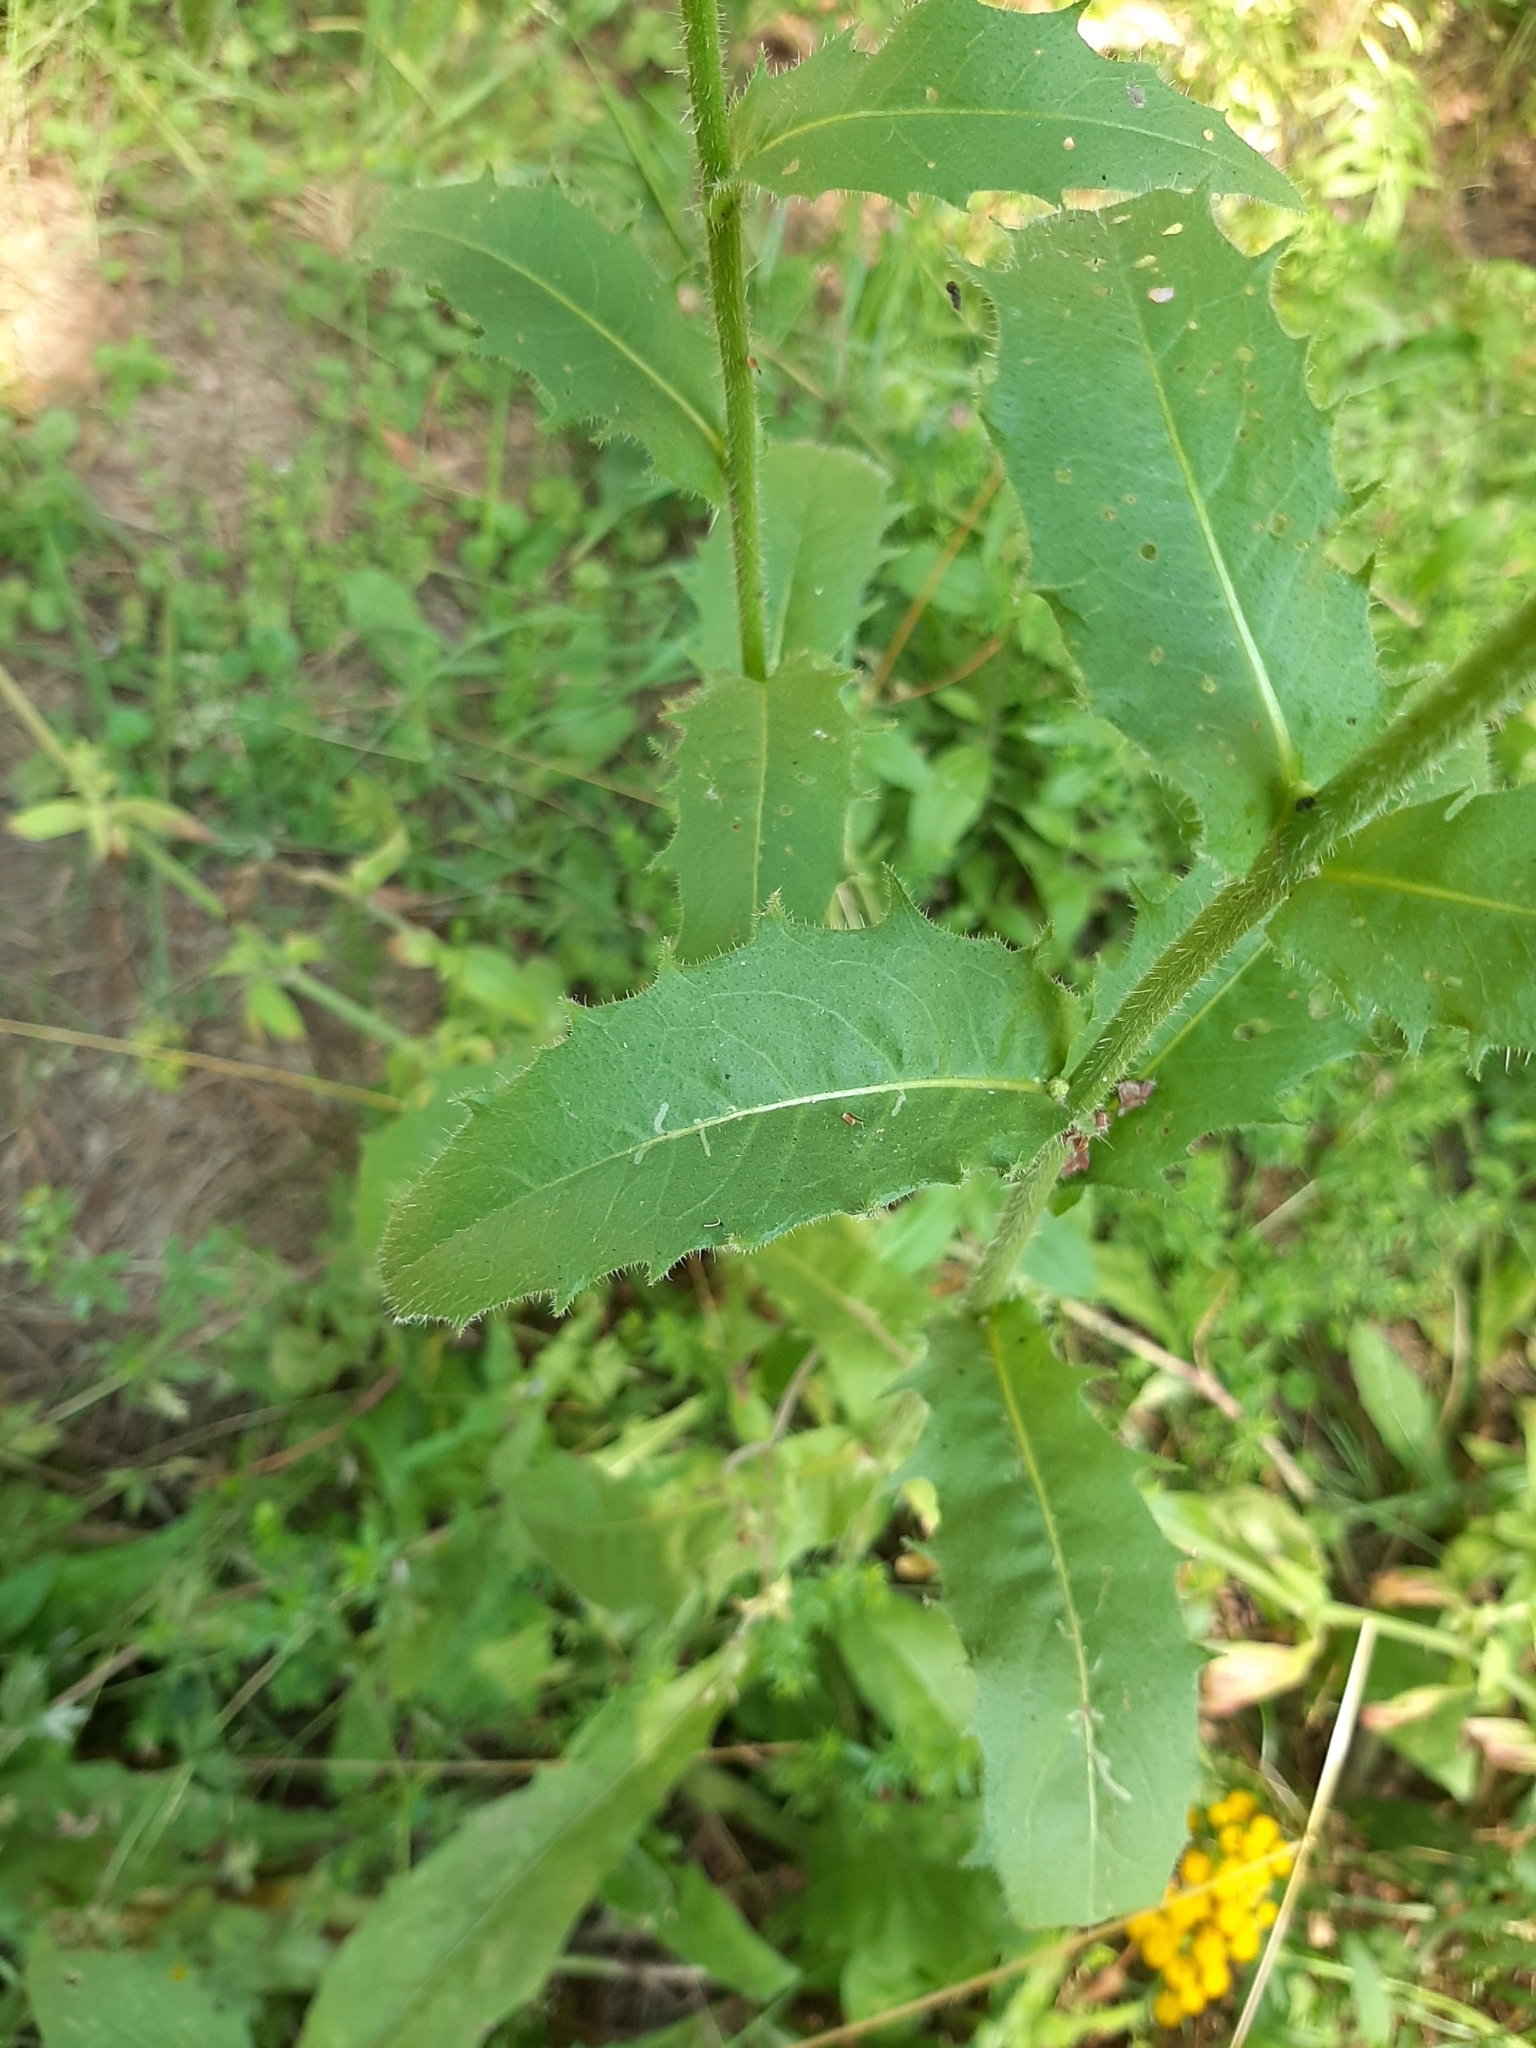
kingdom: Plantae
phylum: Tracheophyta
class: Magnoliopsida
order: Asterales
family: Asteraceae
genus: Picris
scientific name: Picris hieracioides
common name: Hawkweed oxtongue
